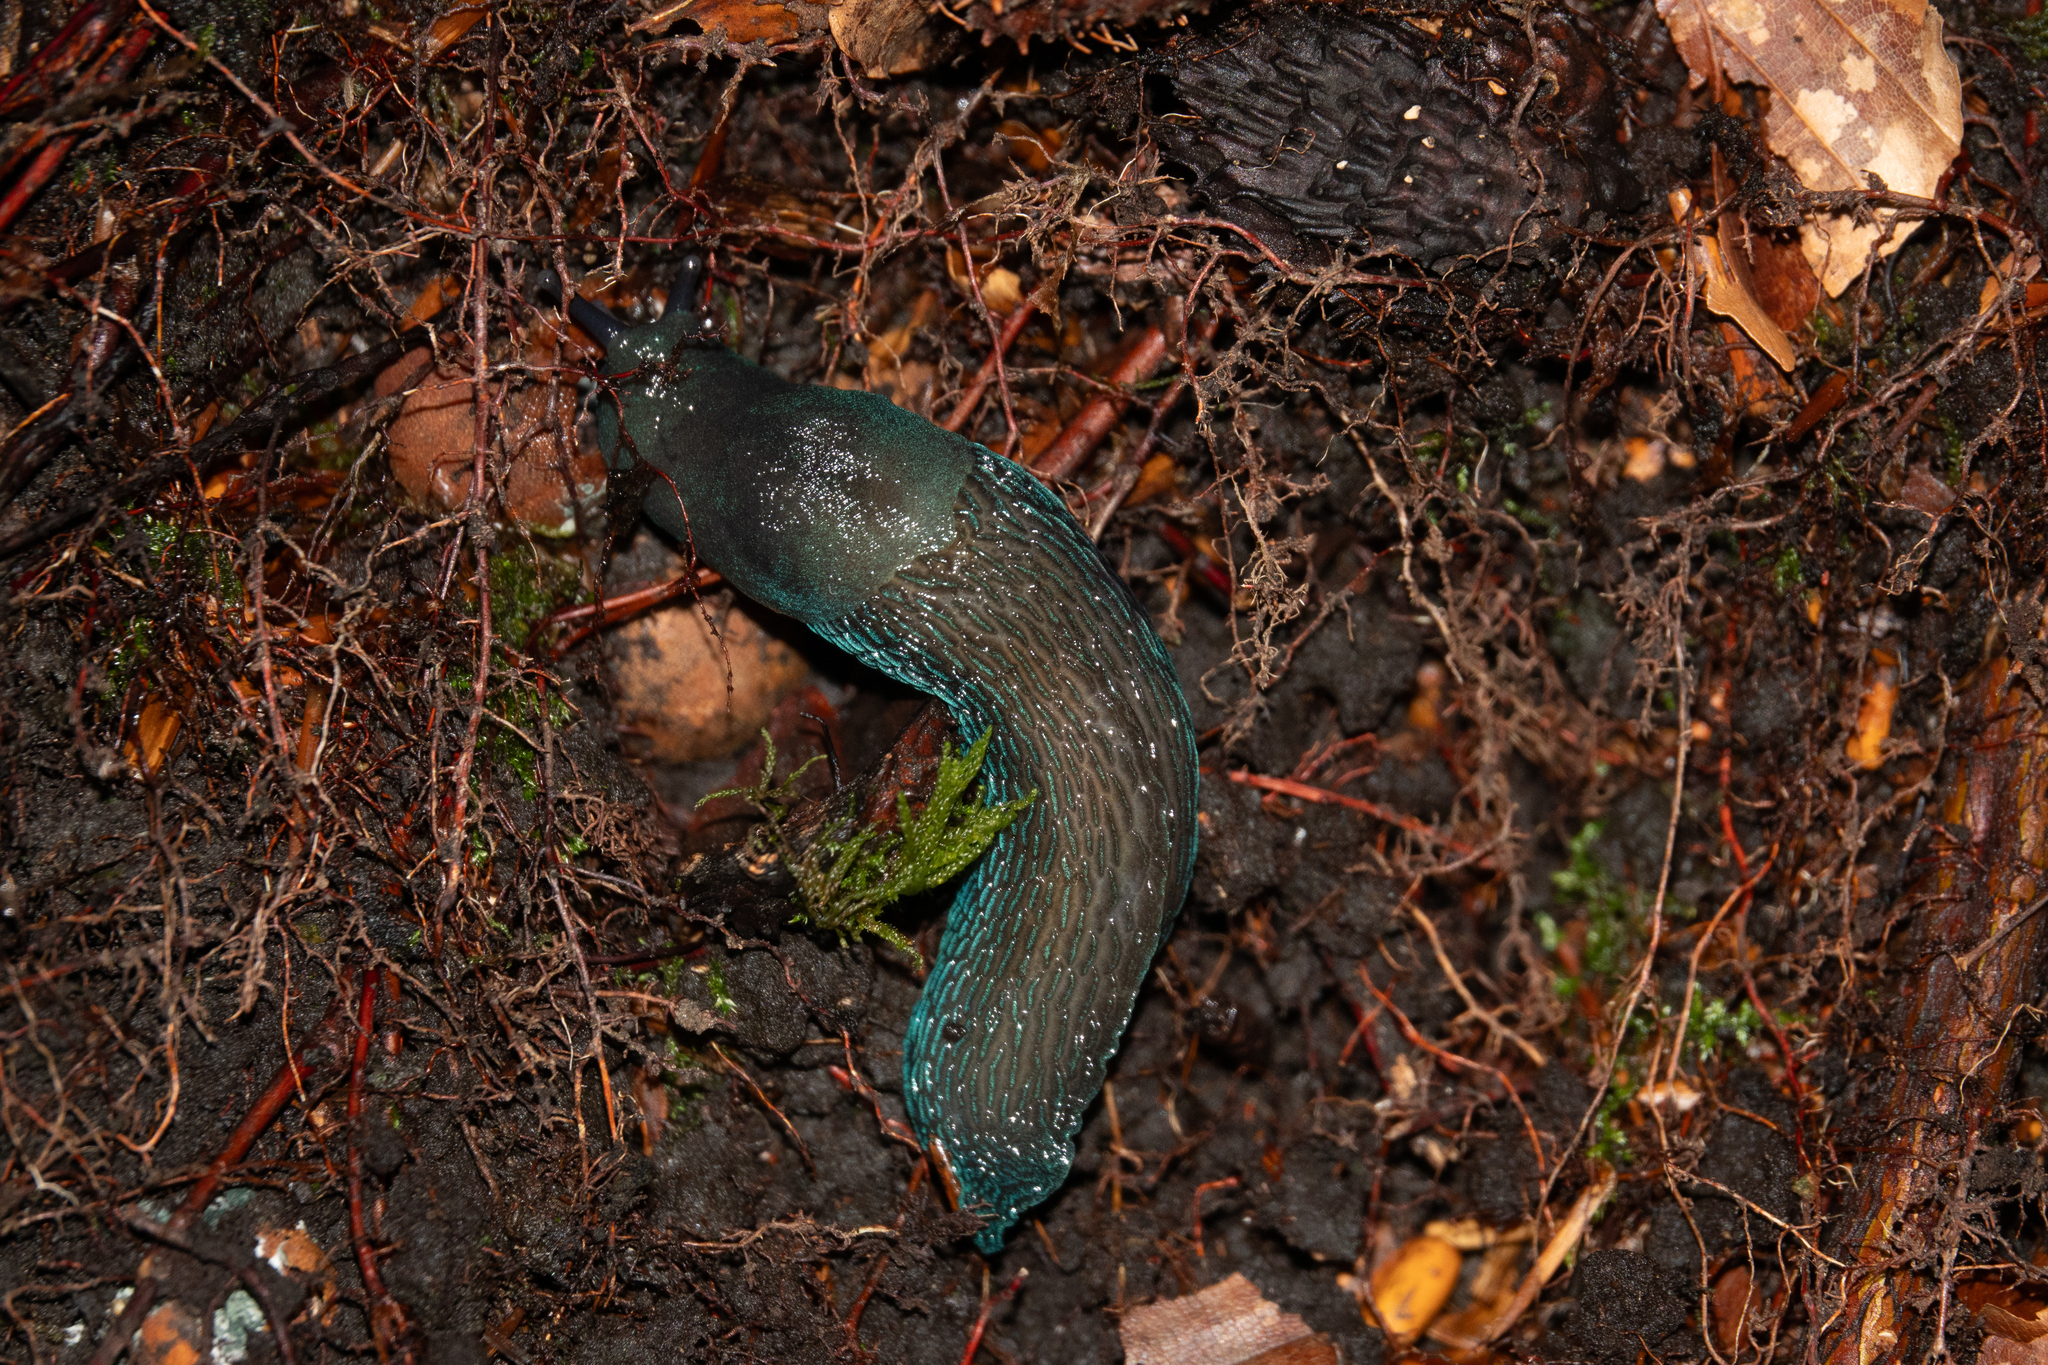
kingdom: Animalia
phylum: Mollusca
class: Gastropoda
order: Stylommatophora
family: Limacidae
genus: Bielzia
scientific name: Bielzia coerulans
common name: Carpathian blue slug
